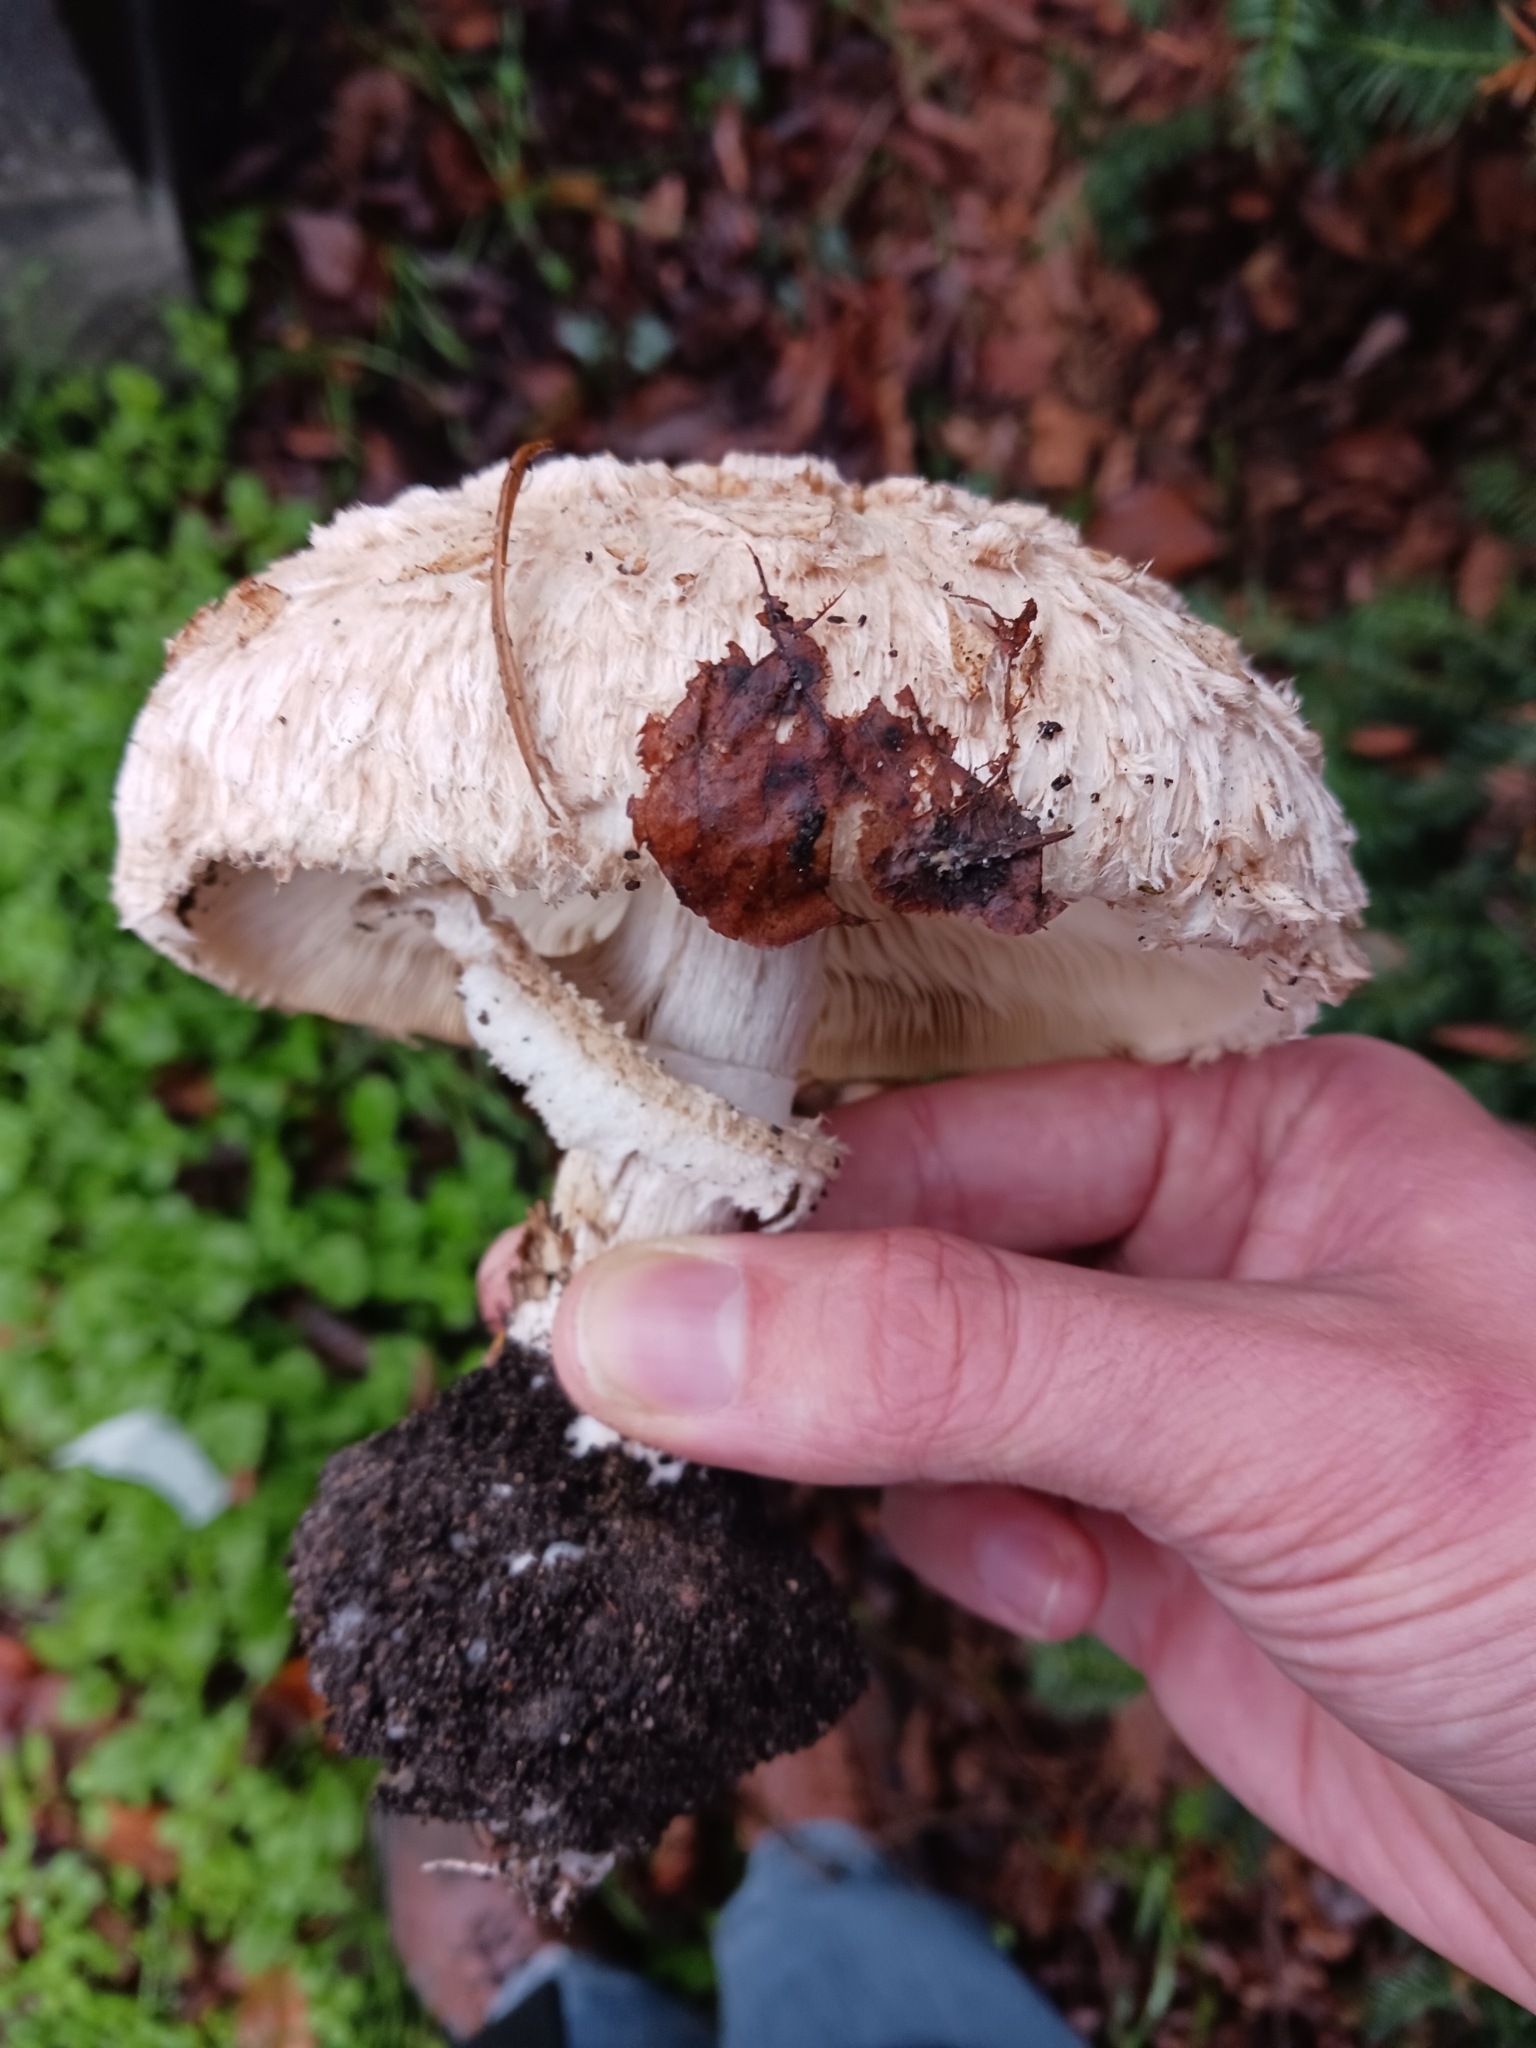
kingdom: Fungi
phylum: Basidiomycota
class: Agaricomycetes
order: Agaricales
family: Agaricaceae
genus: Chlorophyllum
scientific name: Chlorophyllum brunneum
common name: Brown parasol
